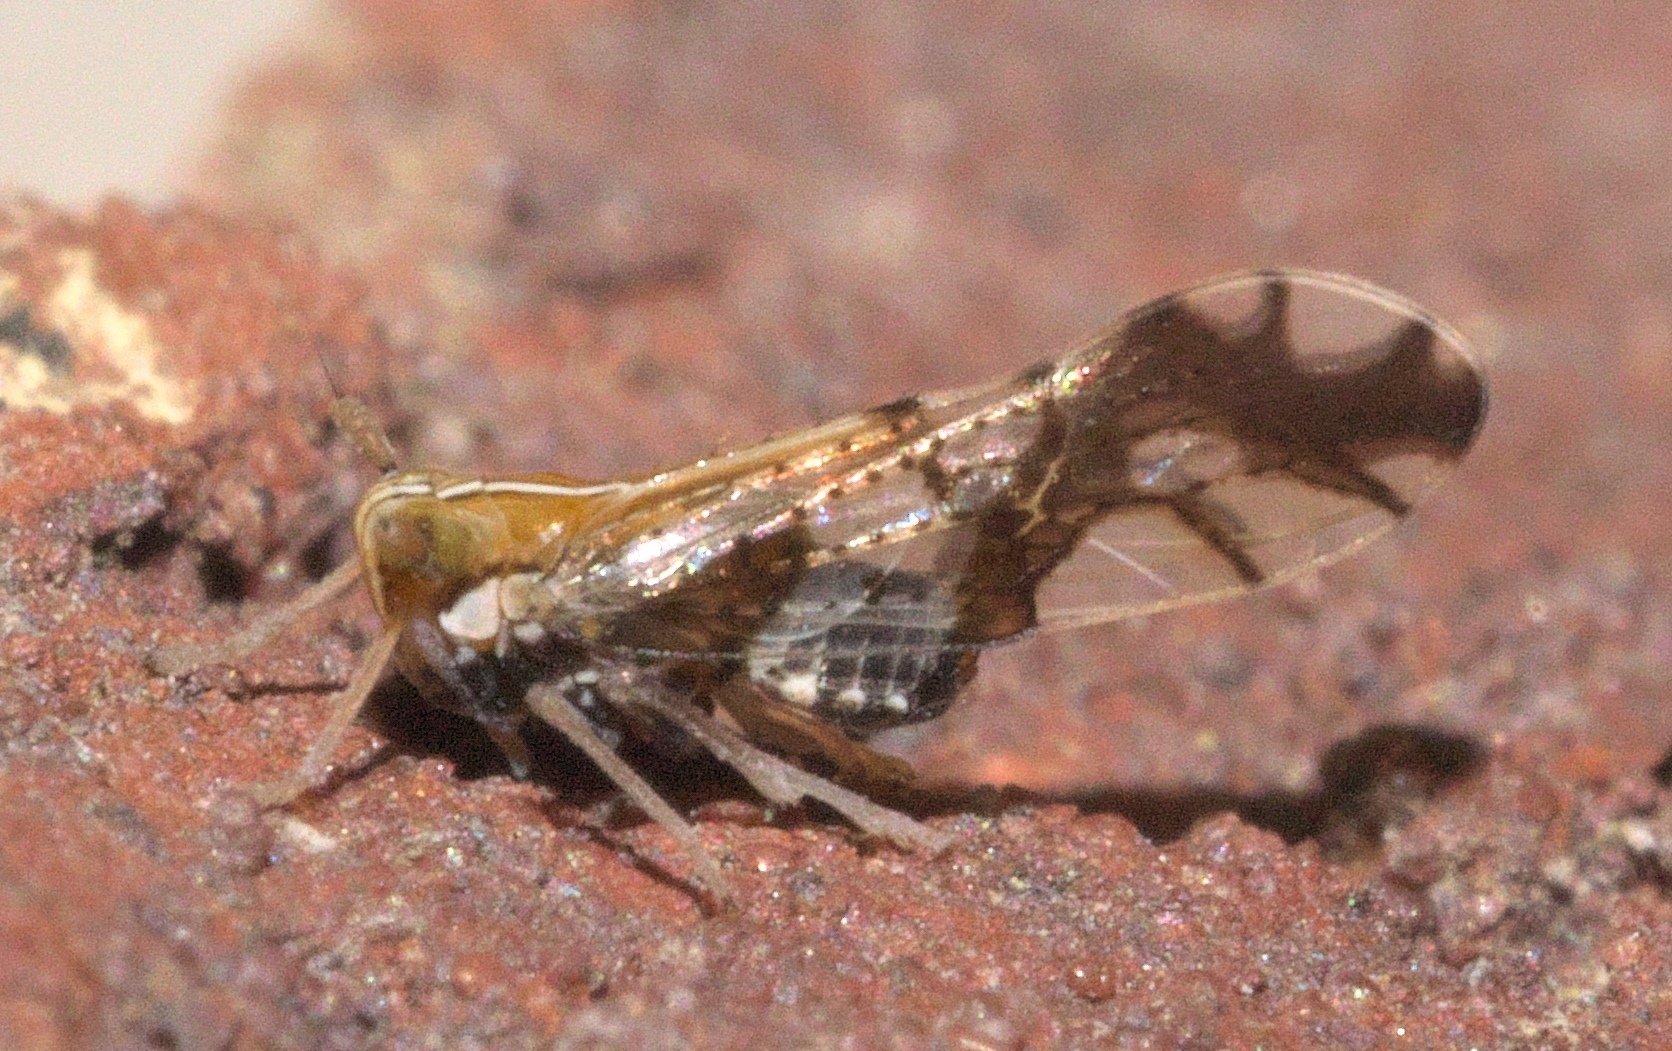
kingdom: Animalia
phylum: Arthropoda
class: Insecta
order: Hemiptera
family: Delphacidae
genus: Liburniella
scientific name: Liburniella ornata
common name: Ornate planthopper
